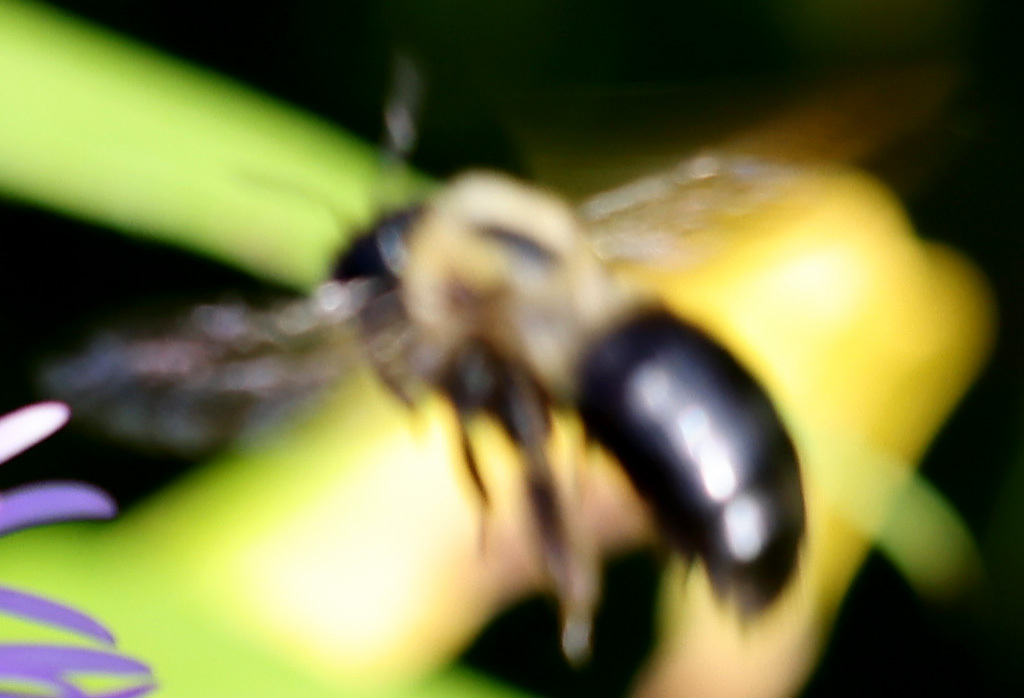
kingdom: Animalia
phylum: Arthropoda
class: Insecta
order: Hymenoptera
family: Apidae
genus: Xylocopa
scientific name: Xylocopa virginica
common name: Carpenter bee
